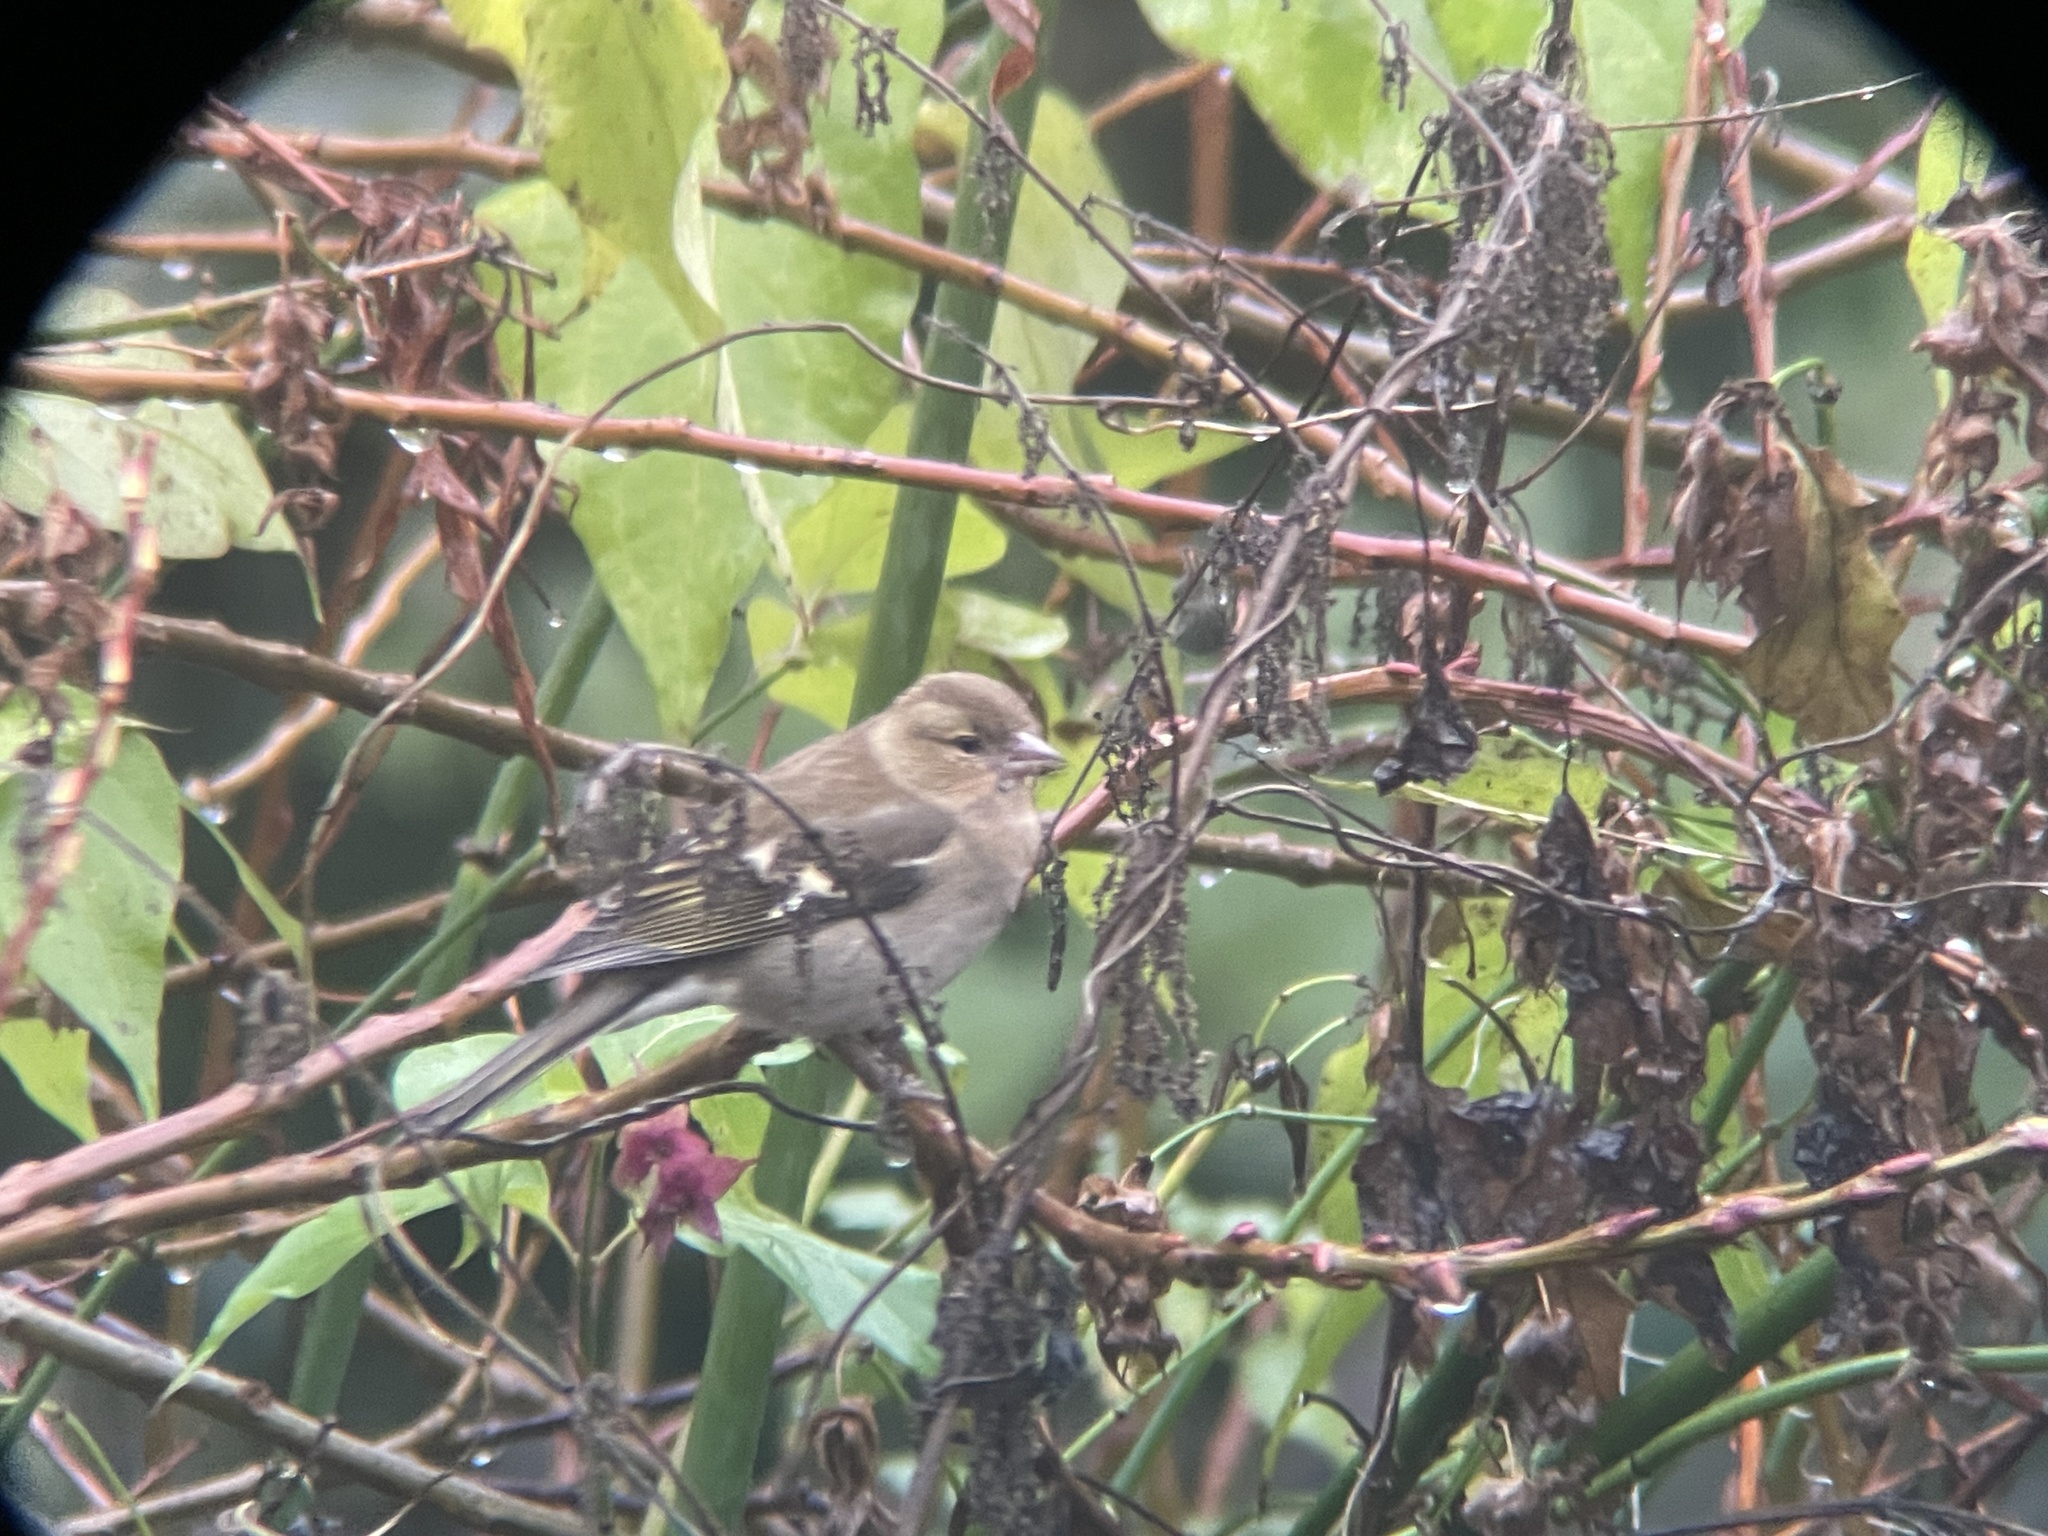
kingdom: Animalia
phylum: Chordata
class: Aves
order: Passeriformes
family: Fringillidae
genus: Fringilla
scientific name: Fringilla coelebs
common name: Common chaffinch
